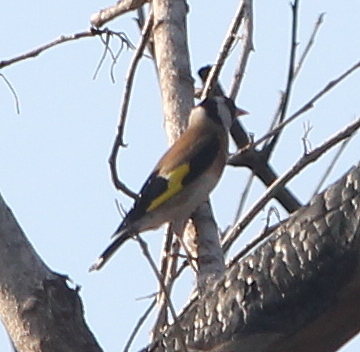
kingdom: Animalia
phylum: Chordata
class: Aves
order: Passeriformes
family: Fringillidae
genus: Carduelis
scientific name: Carduelis carduelis
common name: European goldfinch
